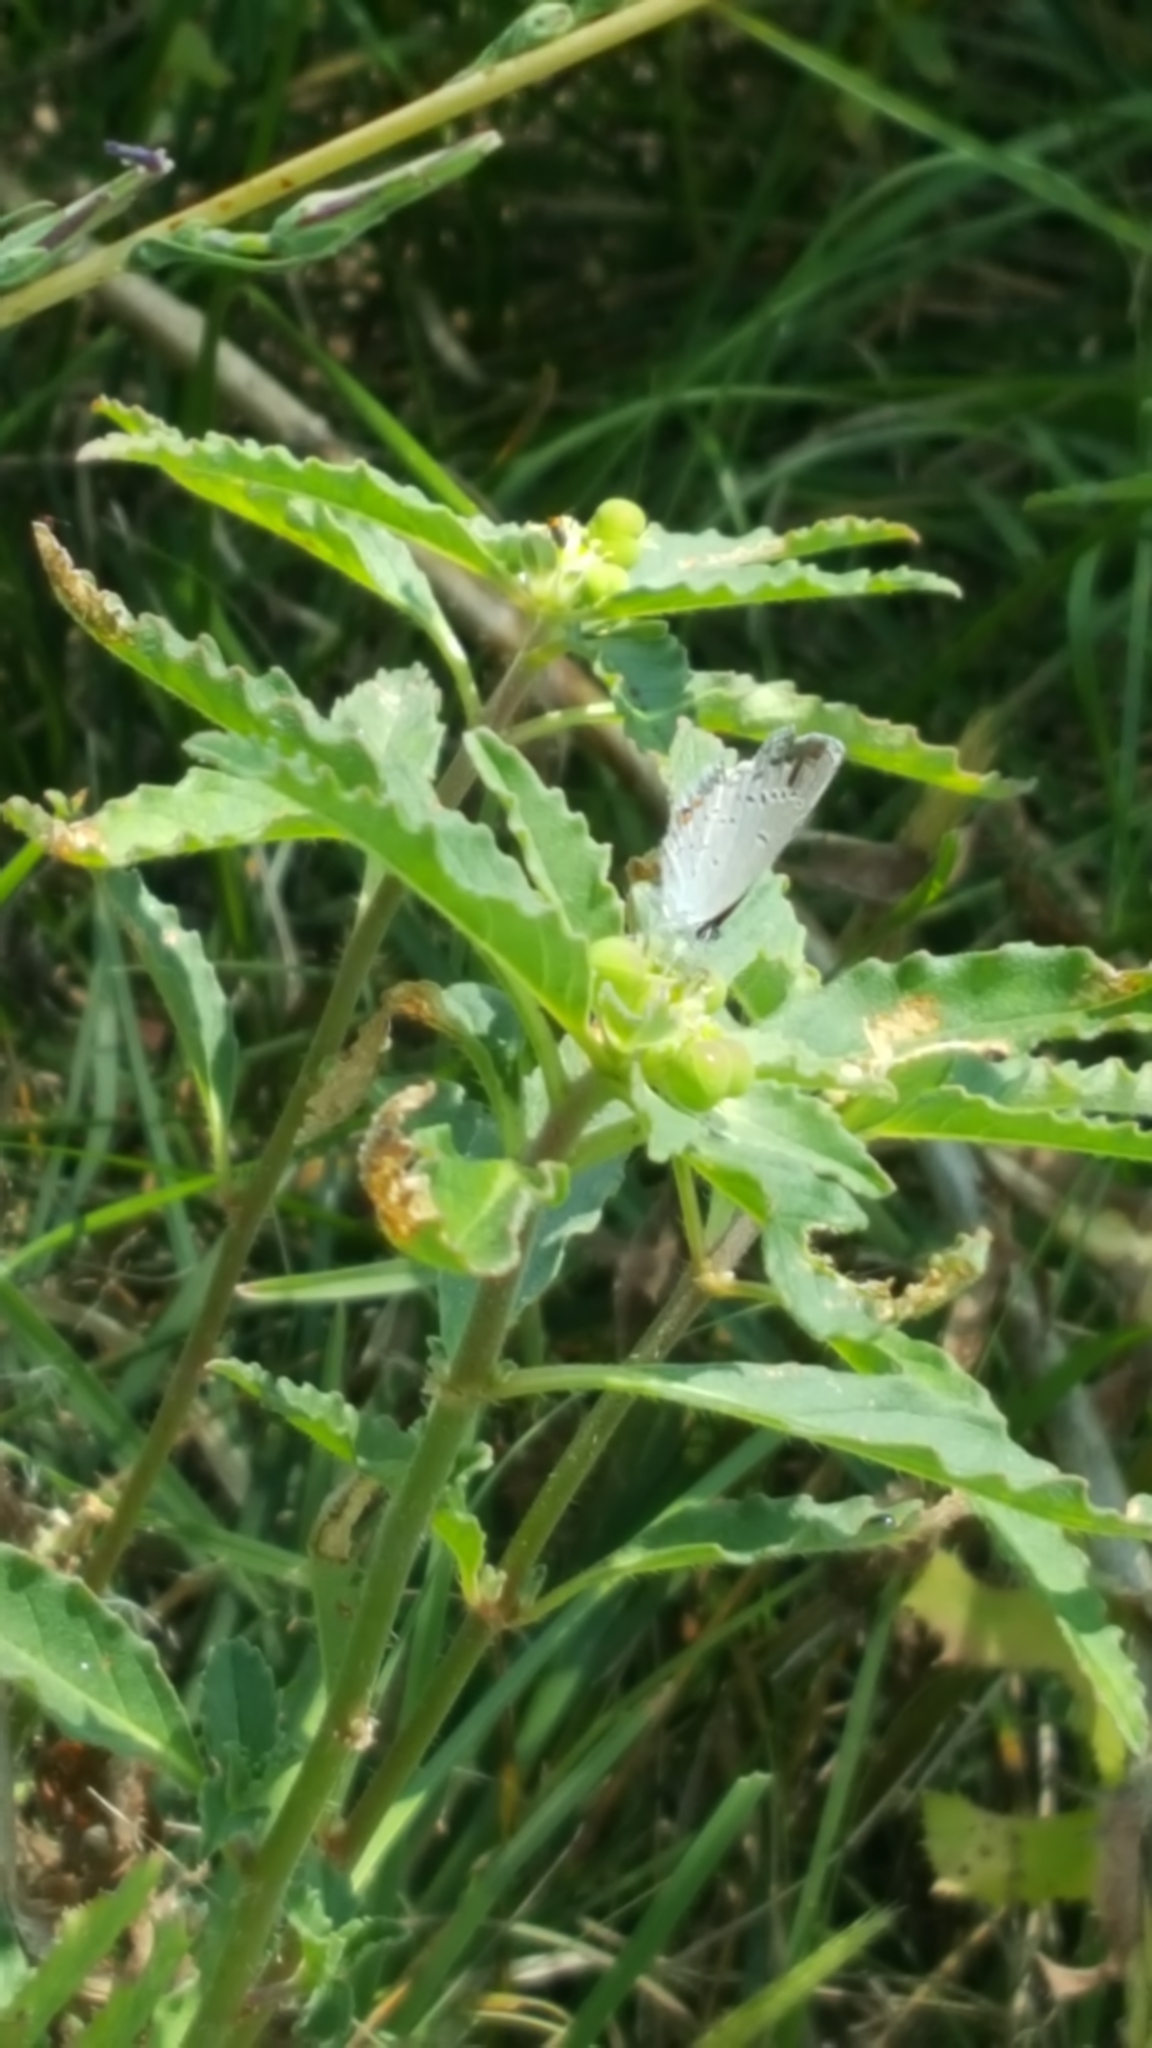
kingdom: Animalia
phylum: Arthropoda
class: Insecta
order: Lepidoptera
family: Lycaenidae
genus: Elkalyce
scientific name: Elkalyce comyntas
